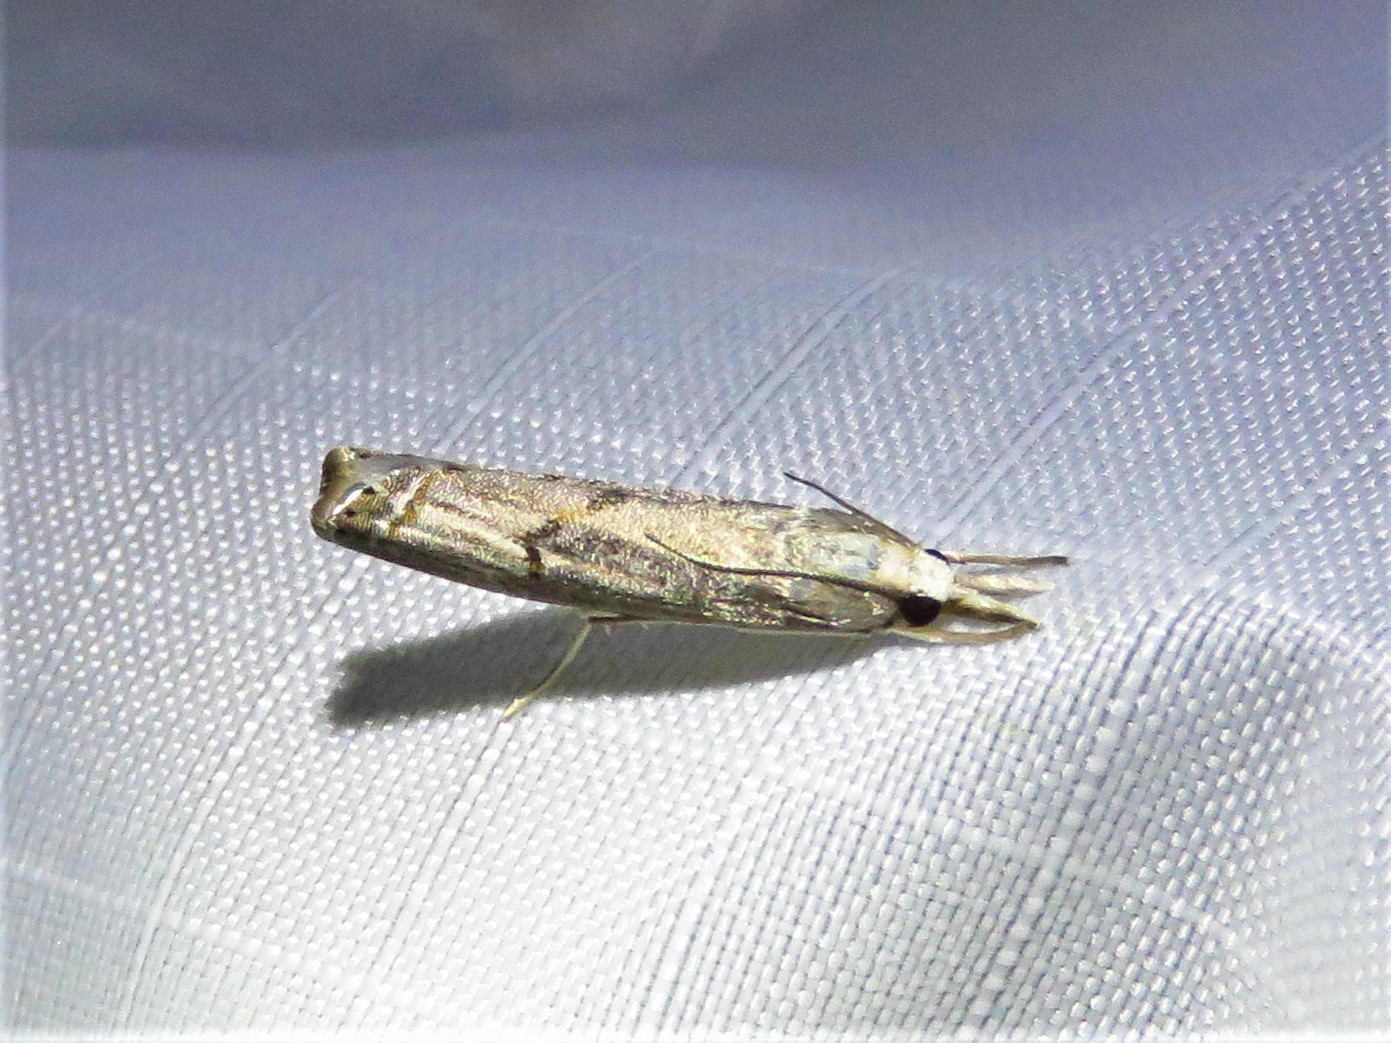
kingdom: Animalia
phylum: Arthropoda
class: Insecta
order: Lepidoptera
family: Crambidae
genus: Parapediasia
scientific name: Parapediasia teterellus
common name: Bluegrass webworm moth
